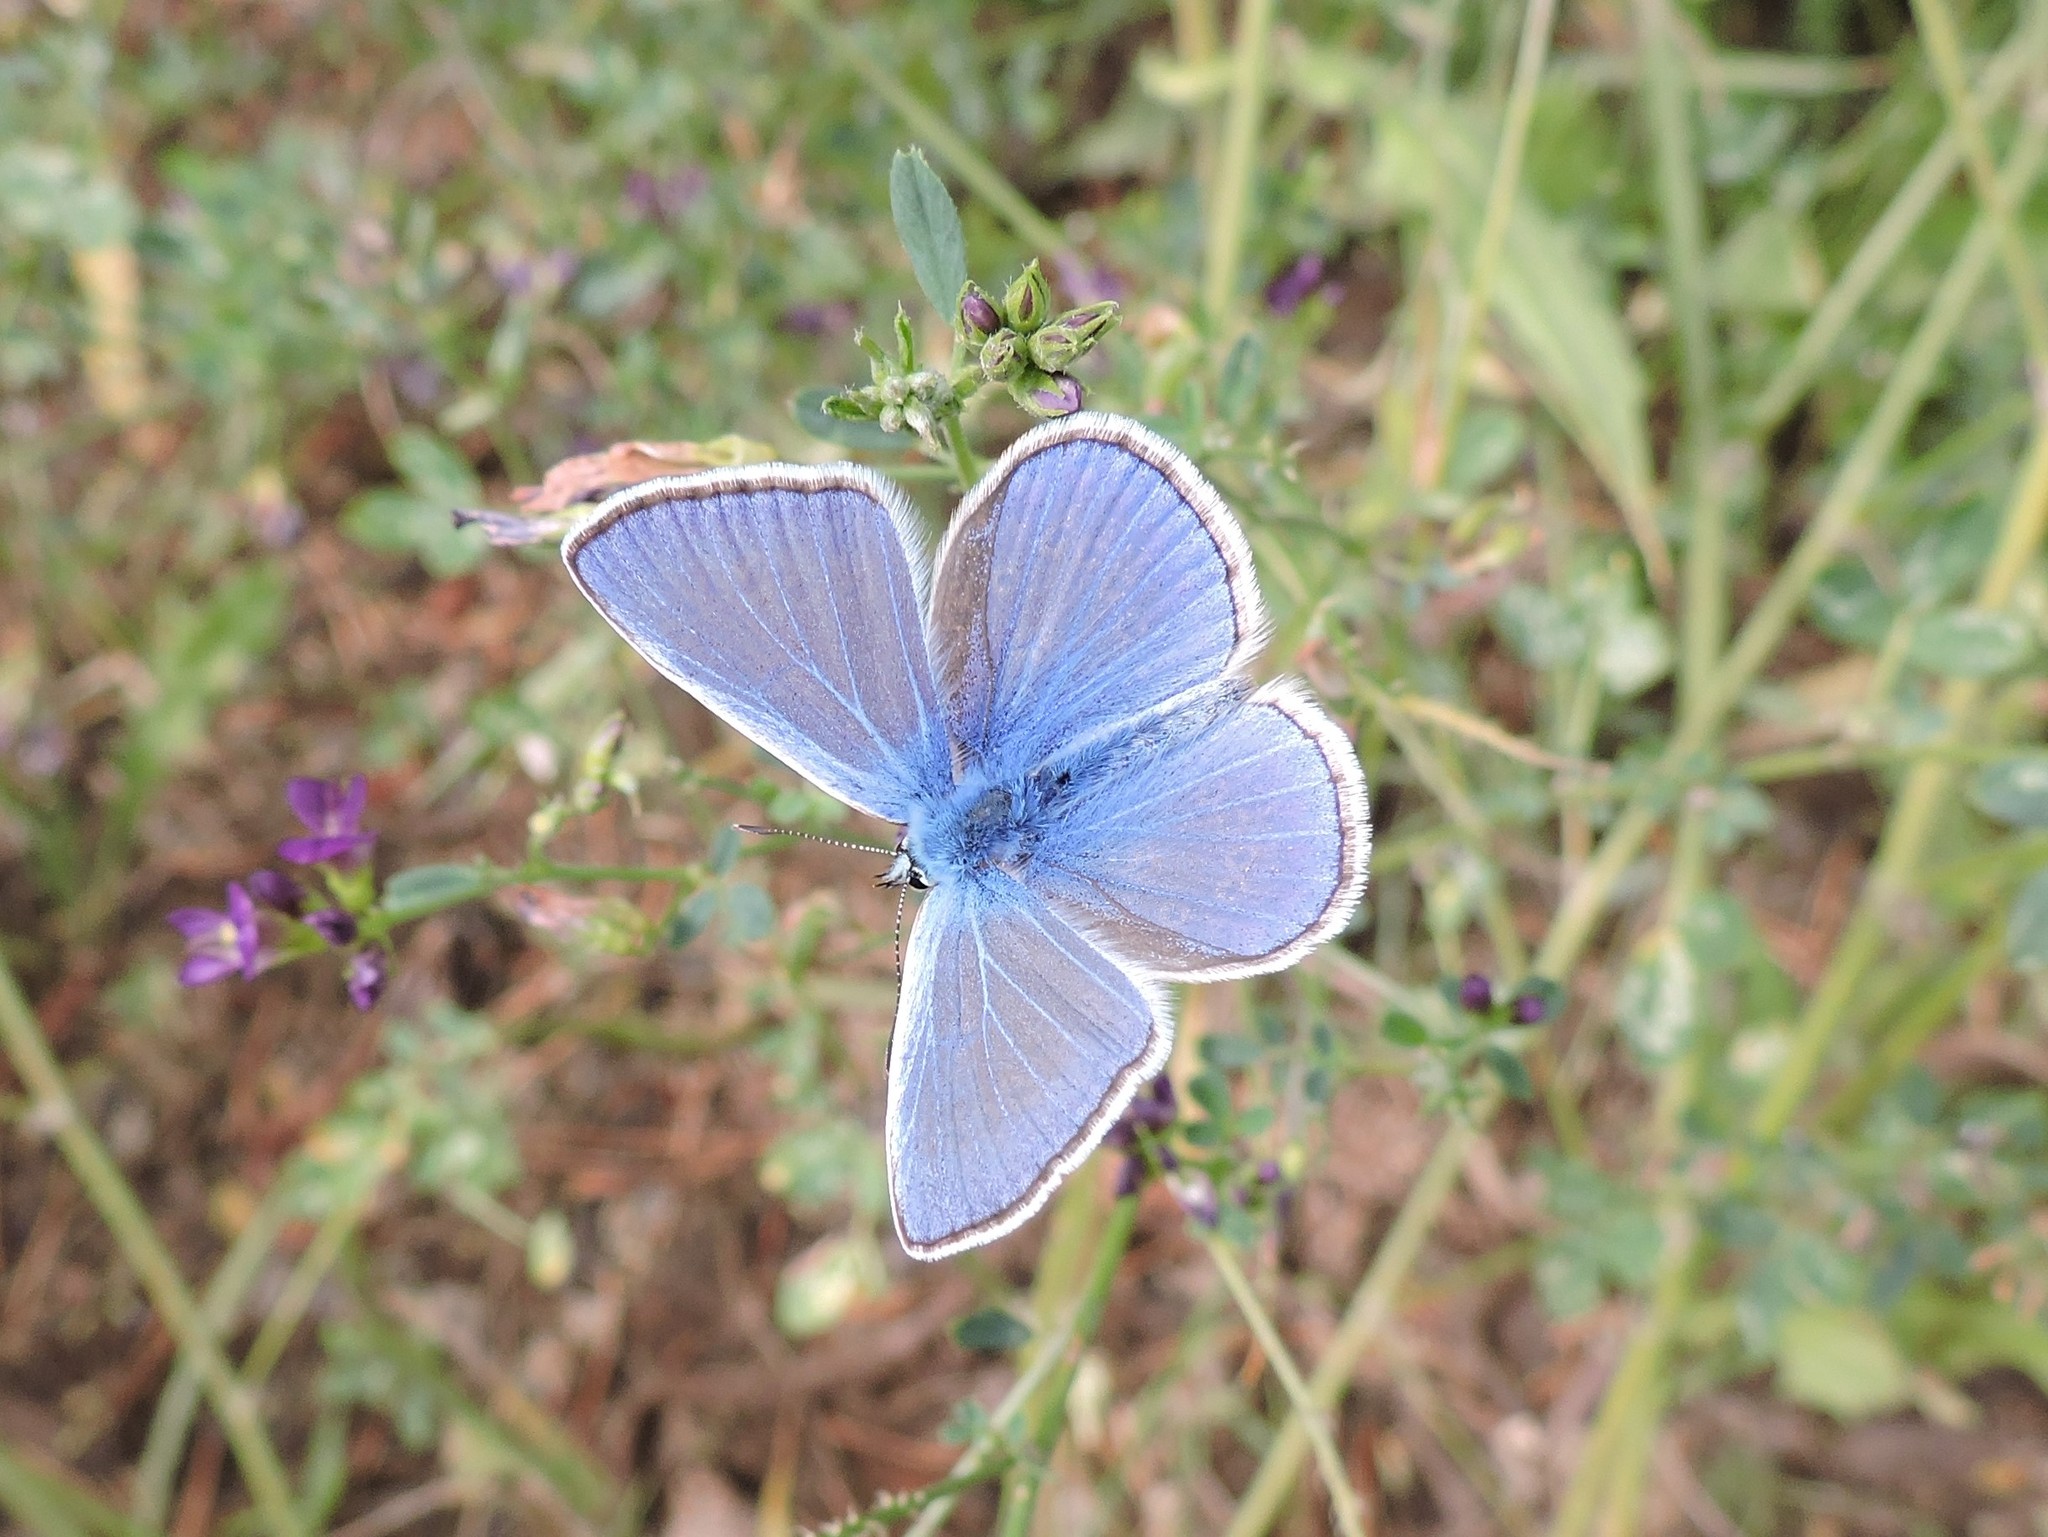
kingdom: Animalia
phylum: Arthropoda
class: Insecta
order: Lepidoptera
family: Lycaenidae
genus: Polyommatus
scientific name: Polyommatus icarus
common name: Common blue
